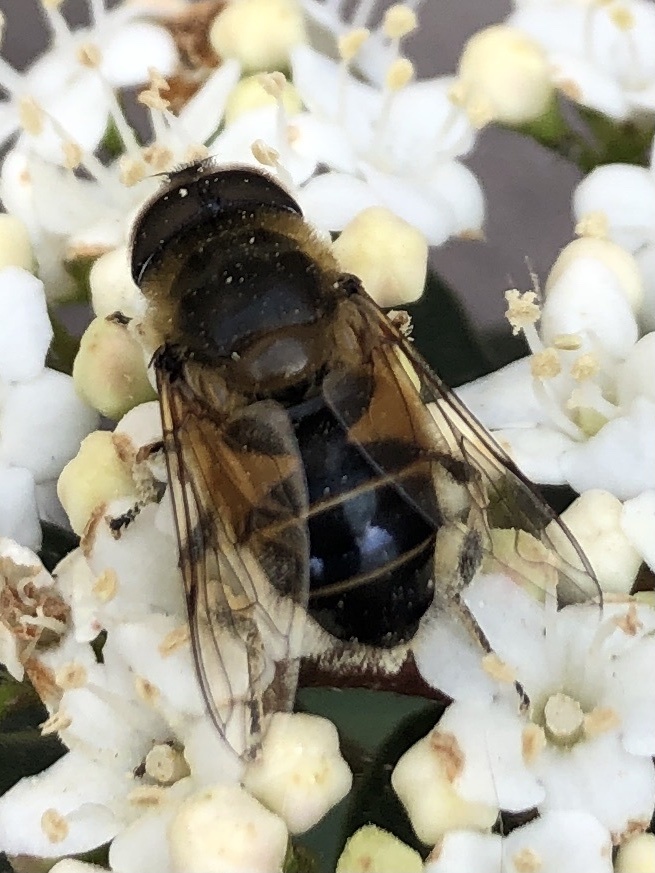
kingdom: Animalia
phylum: Arthropoda
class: Insecta
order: Diptera
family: Syrphidae
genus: Eristalis
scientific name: Eristalis pertinax
